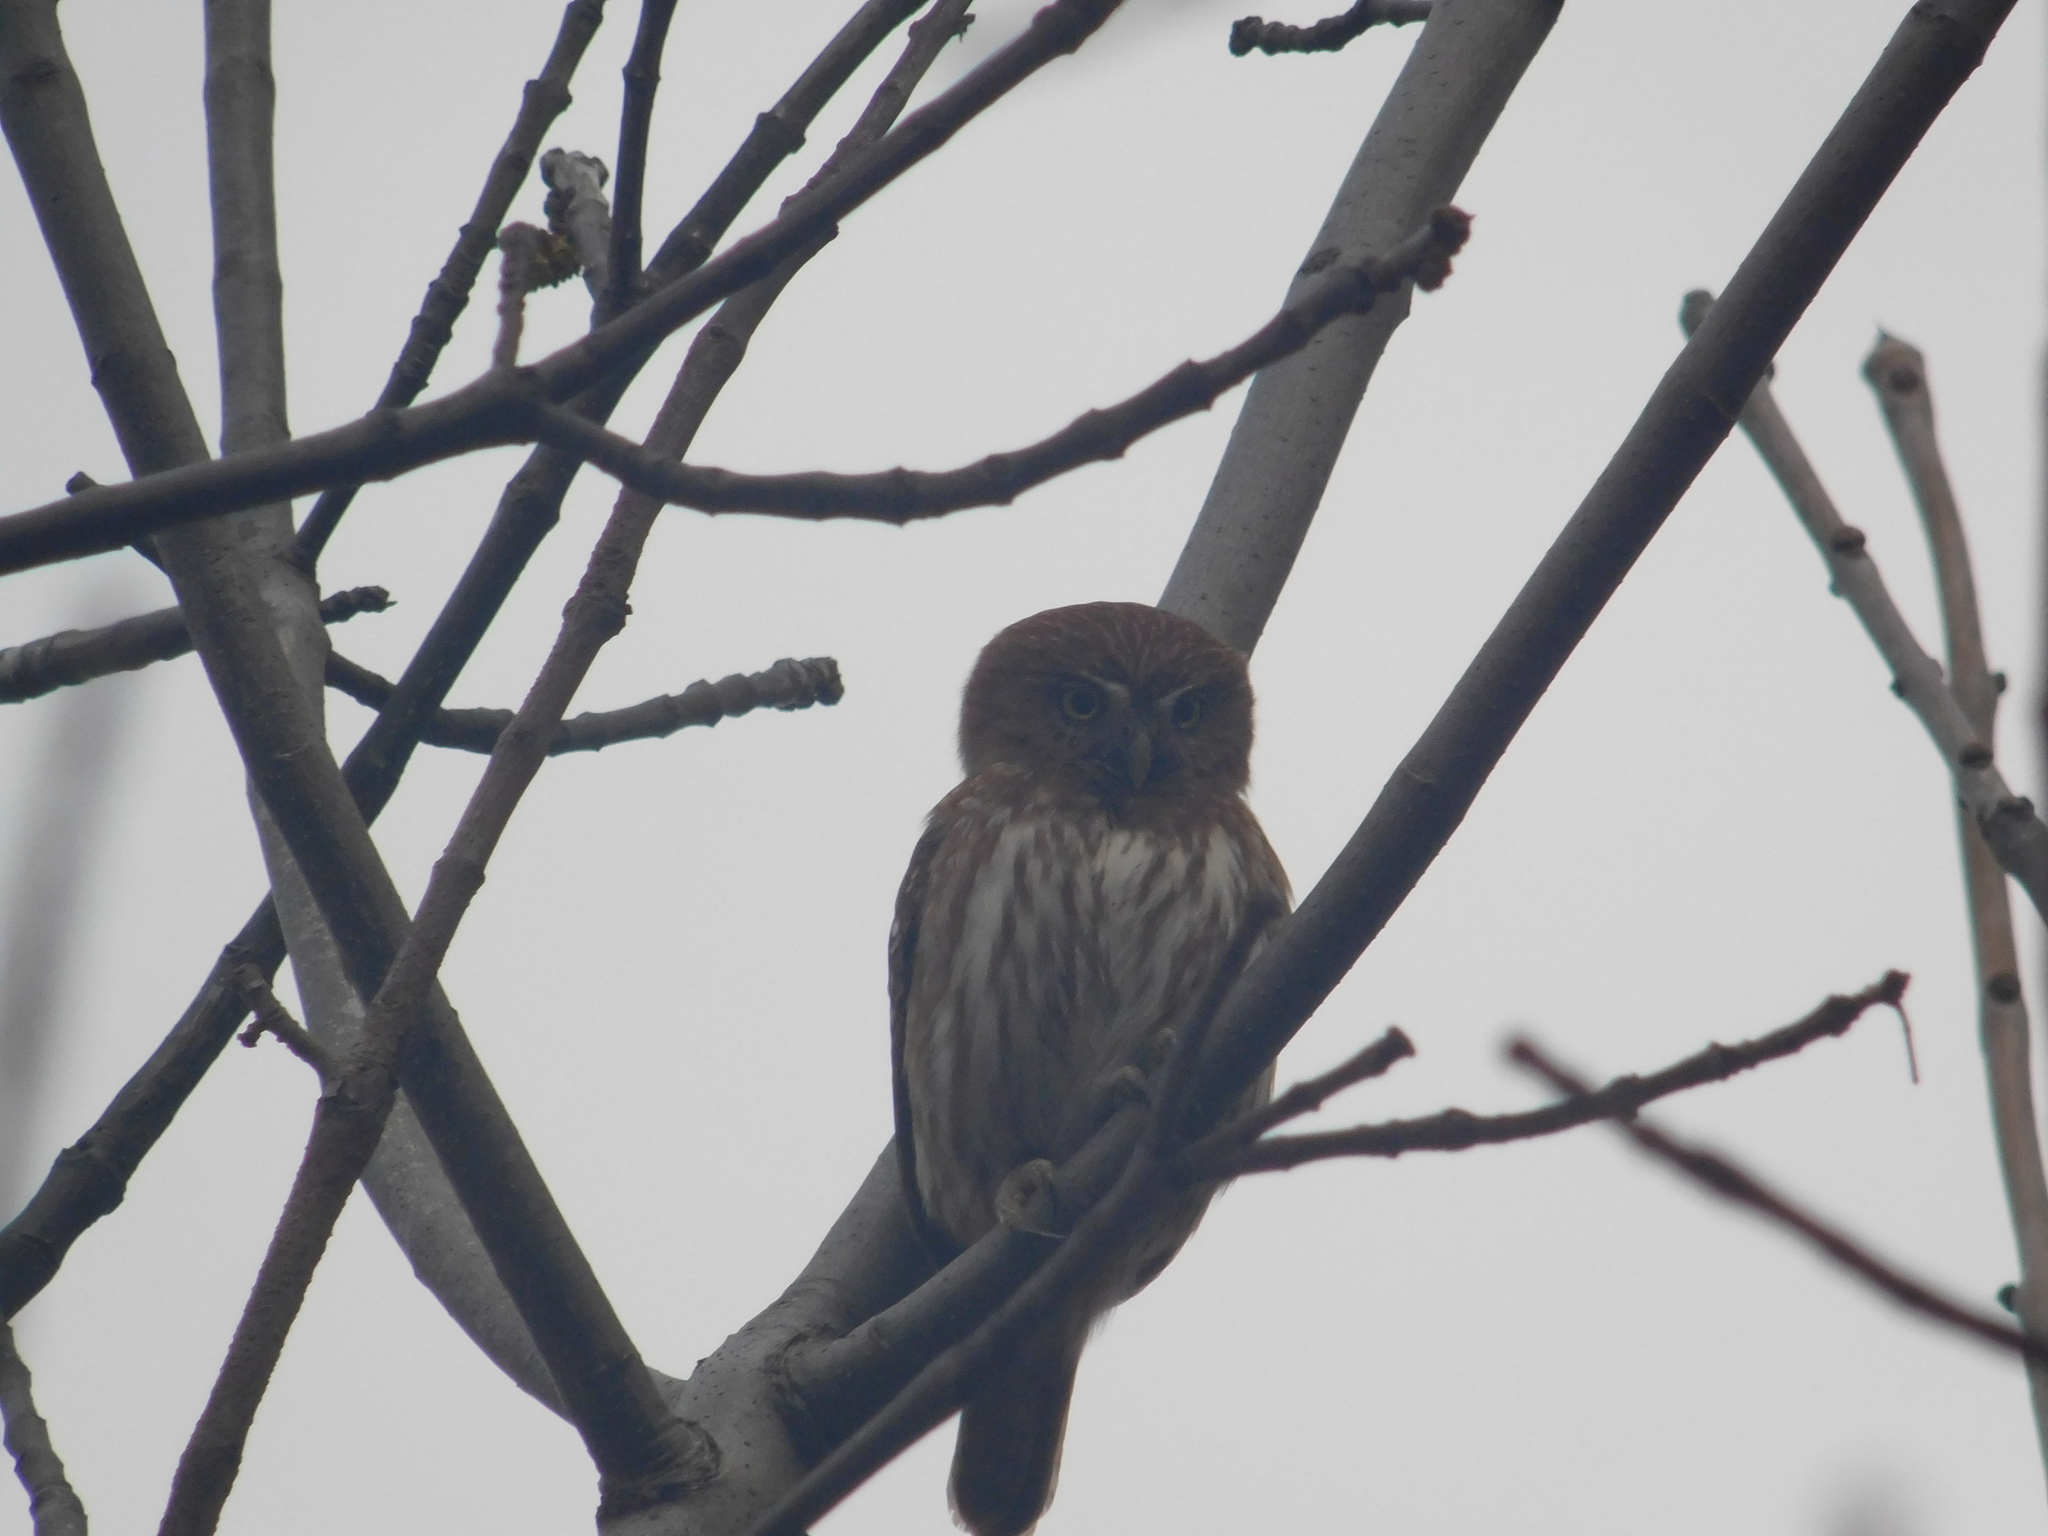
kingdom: Animalia
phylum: Chordata
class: Aves
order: Strigiformes
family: Strigidae
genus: Glaucidium
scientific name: Glaucidium brasilianum
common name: Ferruginous pygmy-owl
